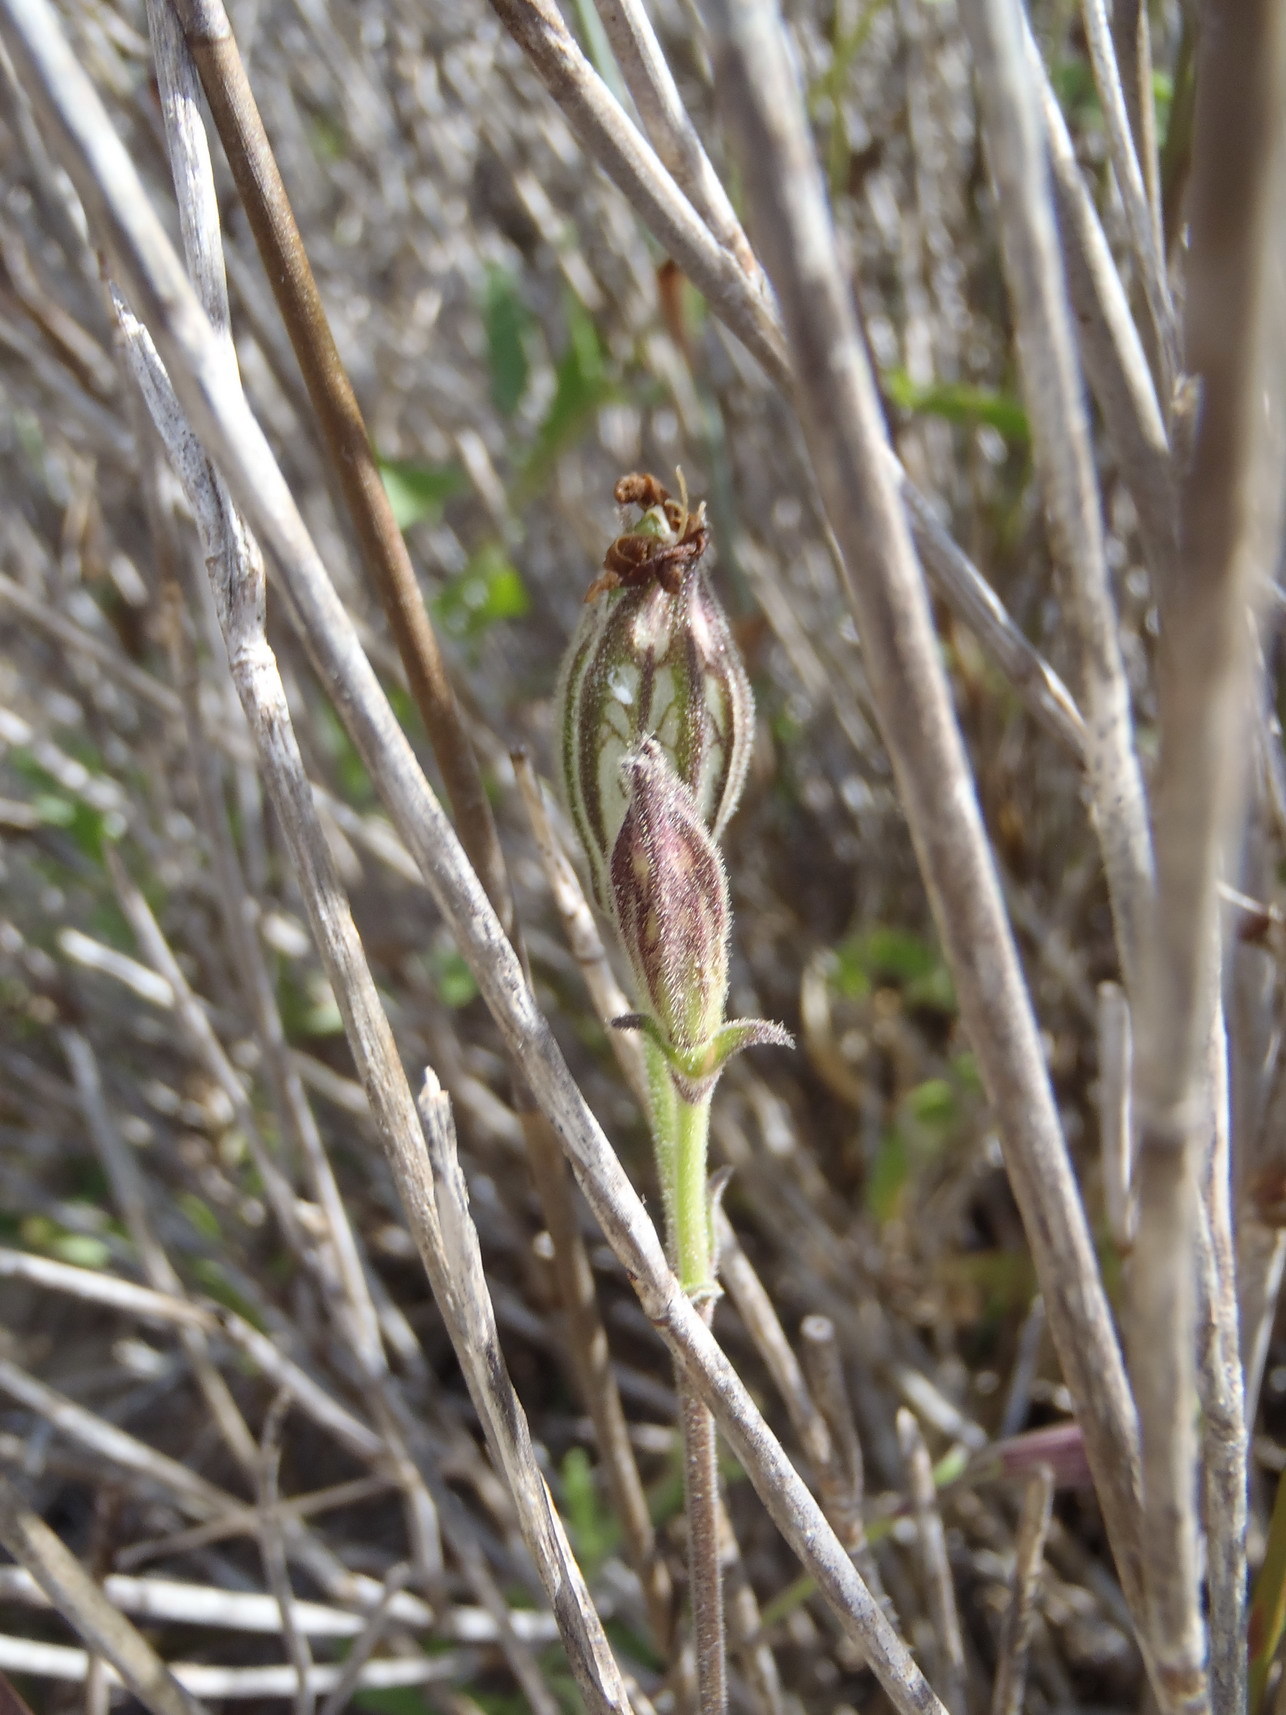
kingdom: Plantae
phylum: Tracheophyta
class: Magnoliopsida
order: Caryophyllales
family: Caryophyllaceae
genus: Silene
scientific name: Silene rigens
